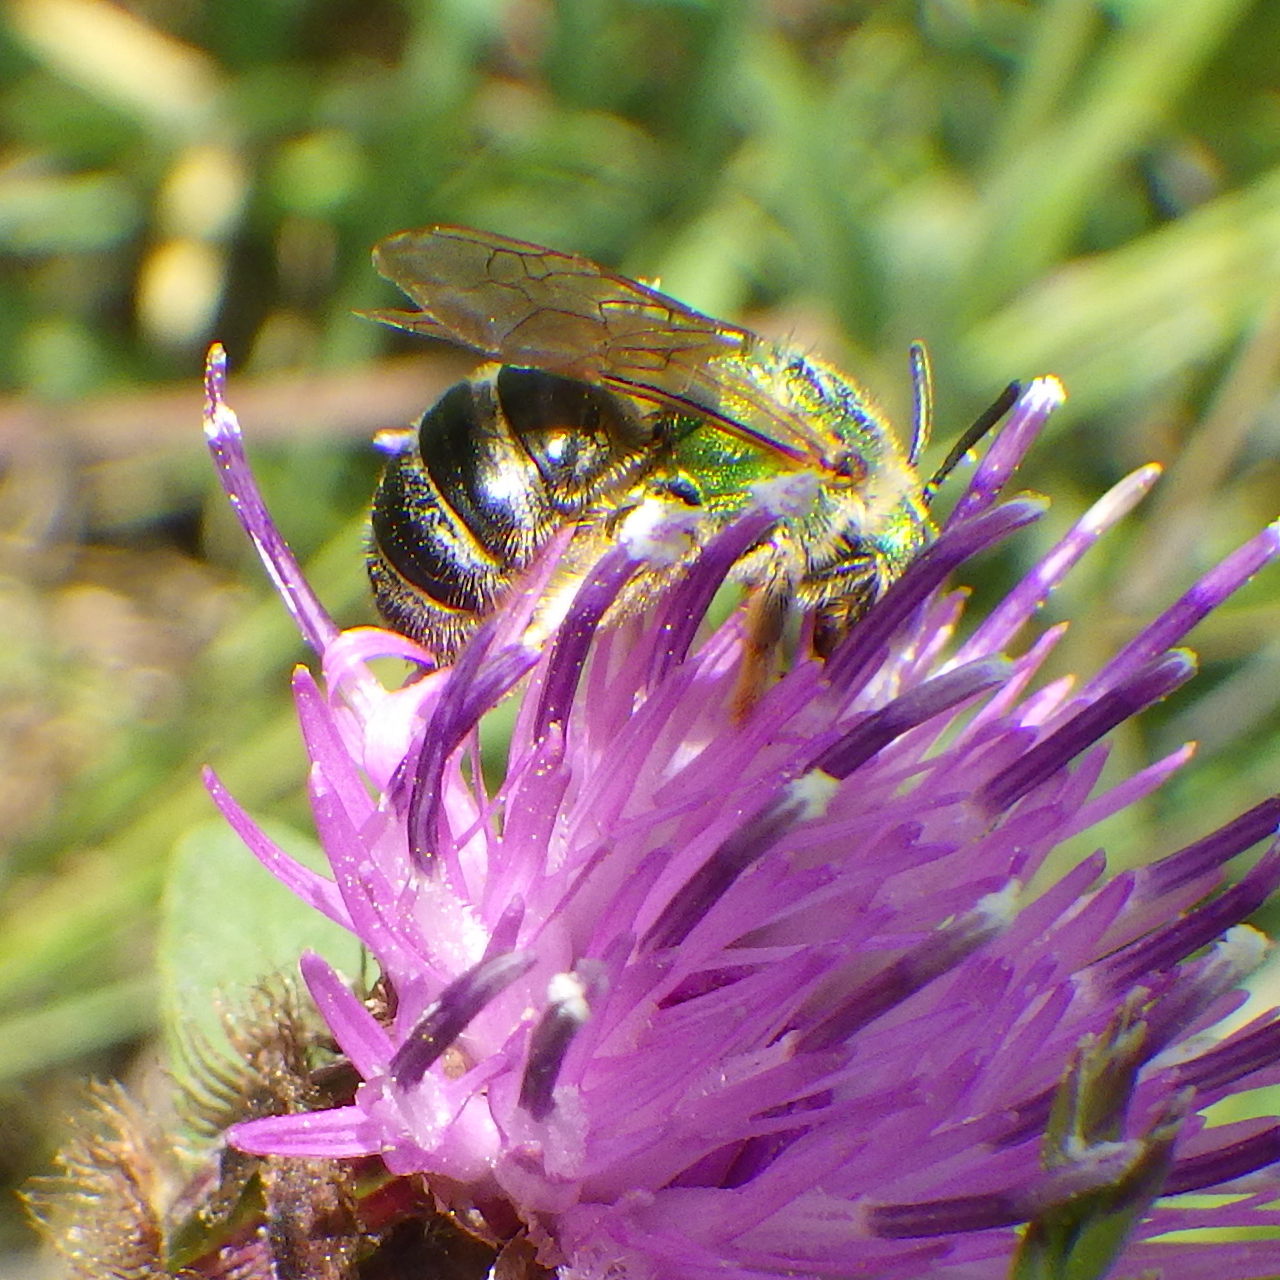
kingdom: Animalia
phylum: Arthropoda
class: Insecta
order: Hymenoptera
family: Halictidae
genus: Agapostemon
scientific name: Agapostemon virescens
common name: Bicolored striped sweat bee
